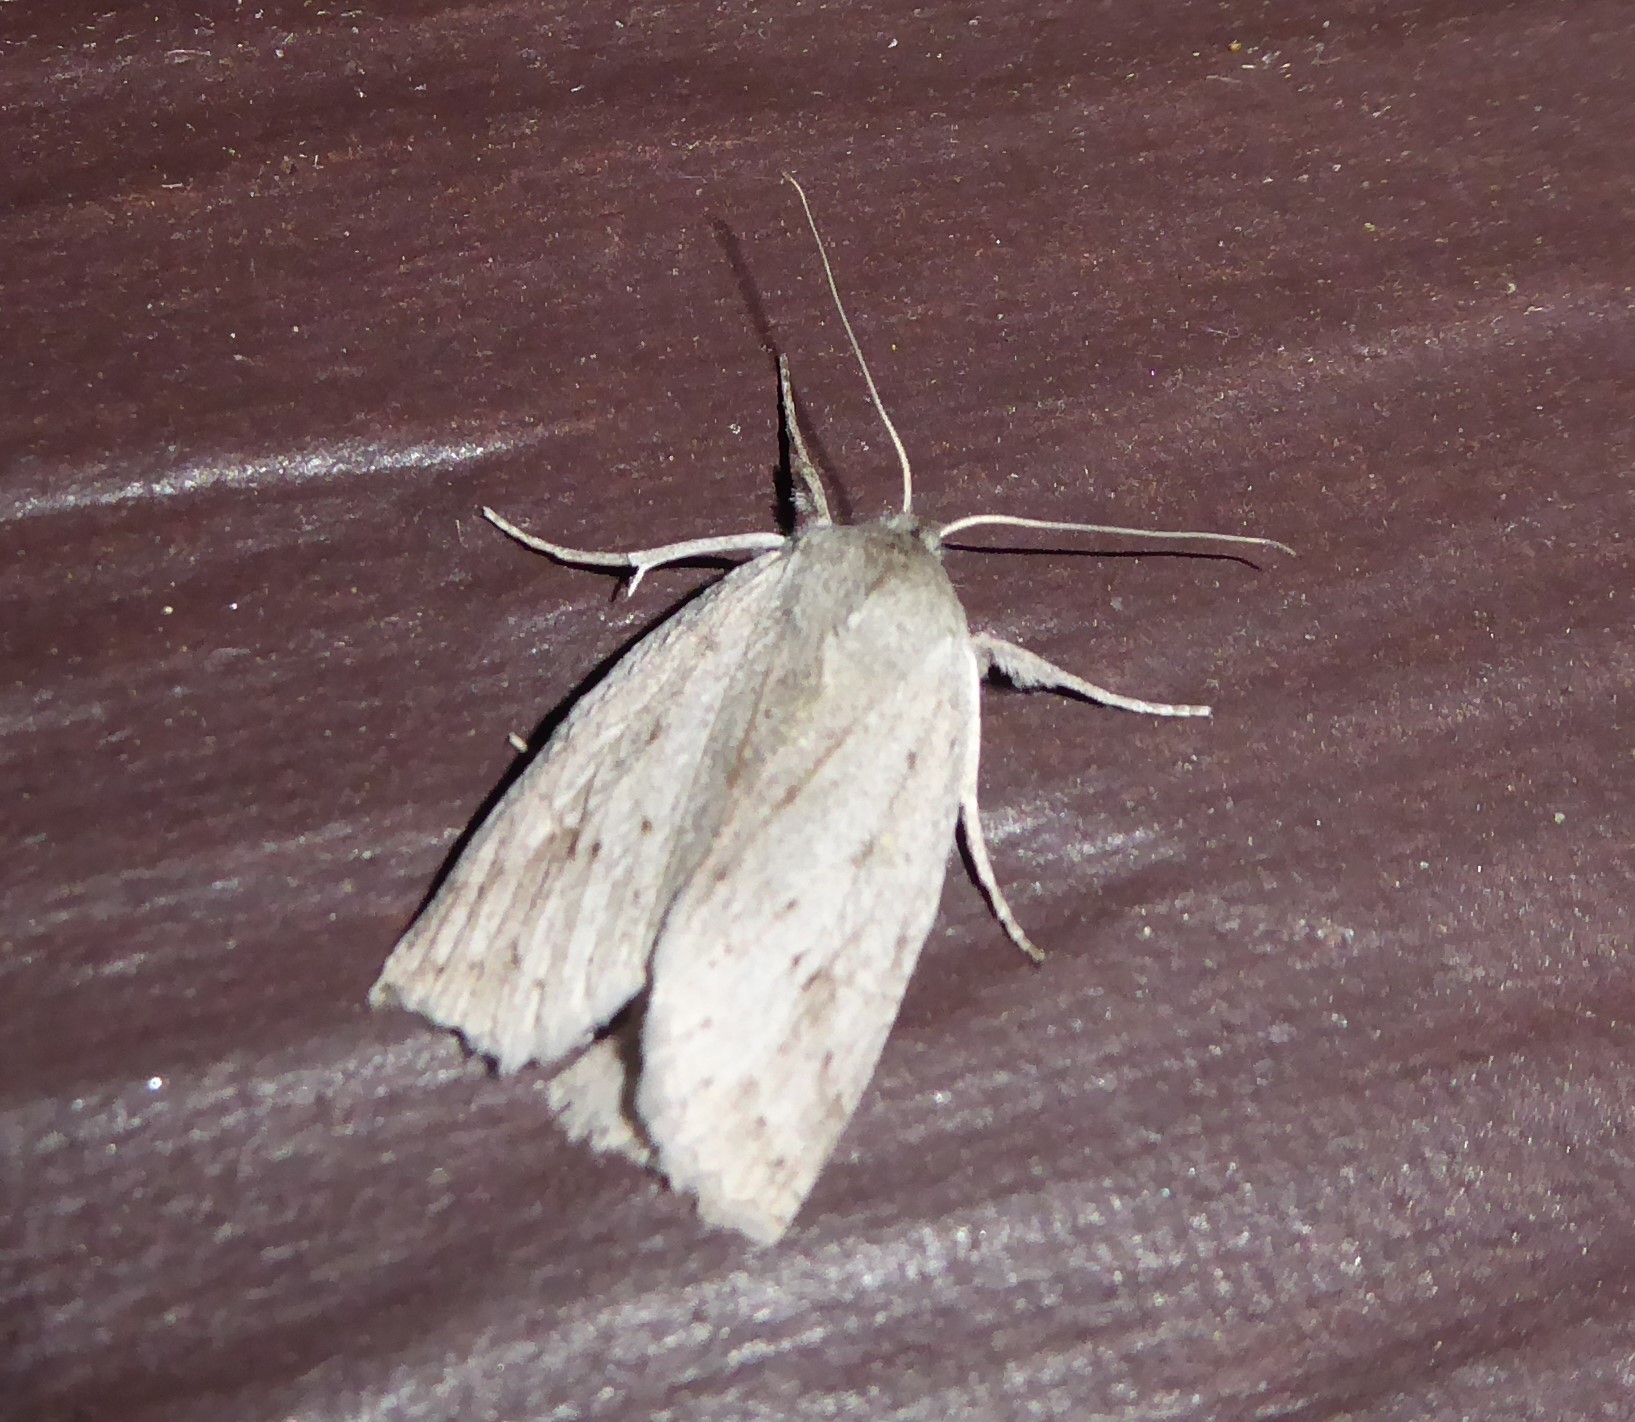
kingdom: Animalia
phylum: Arthropoda
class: Insecta
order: Lepidoptera
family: Geometridae
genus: Declana
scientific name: Declana leptomera
